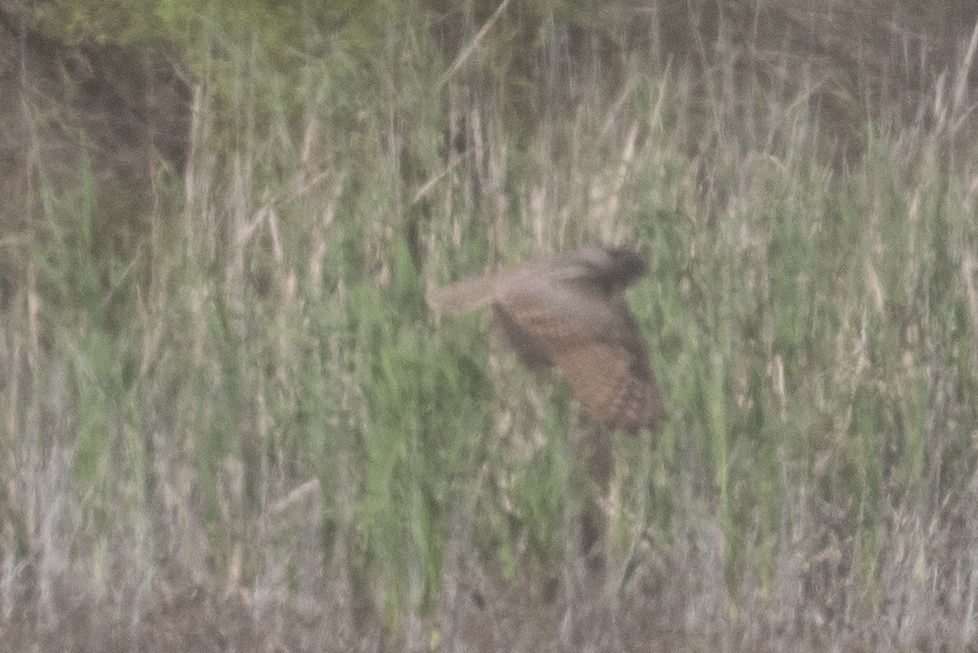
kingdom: Animalia
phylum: Chordata
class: Aves
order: Strigiformes
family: Strigidae
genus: Bubo
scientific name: Bubo virginianus
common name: Great horned owl
